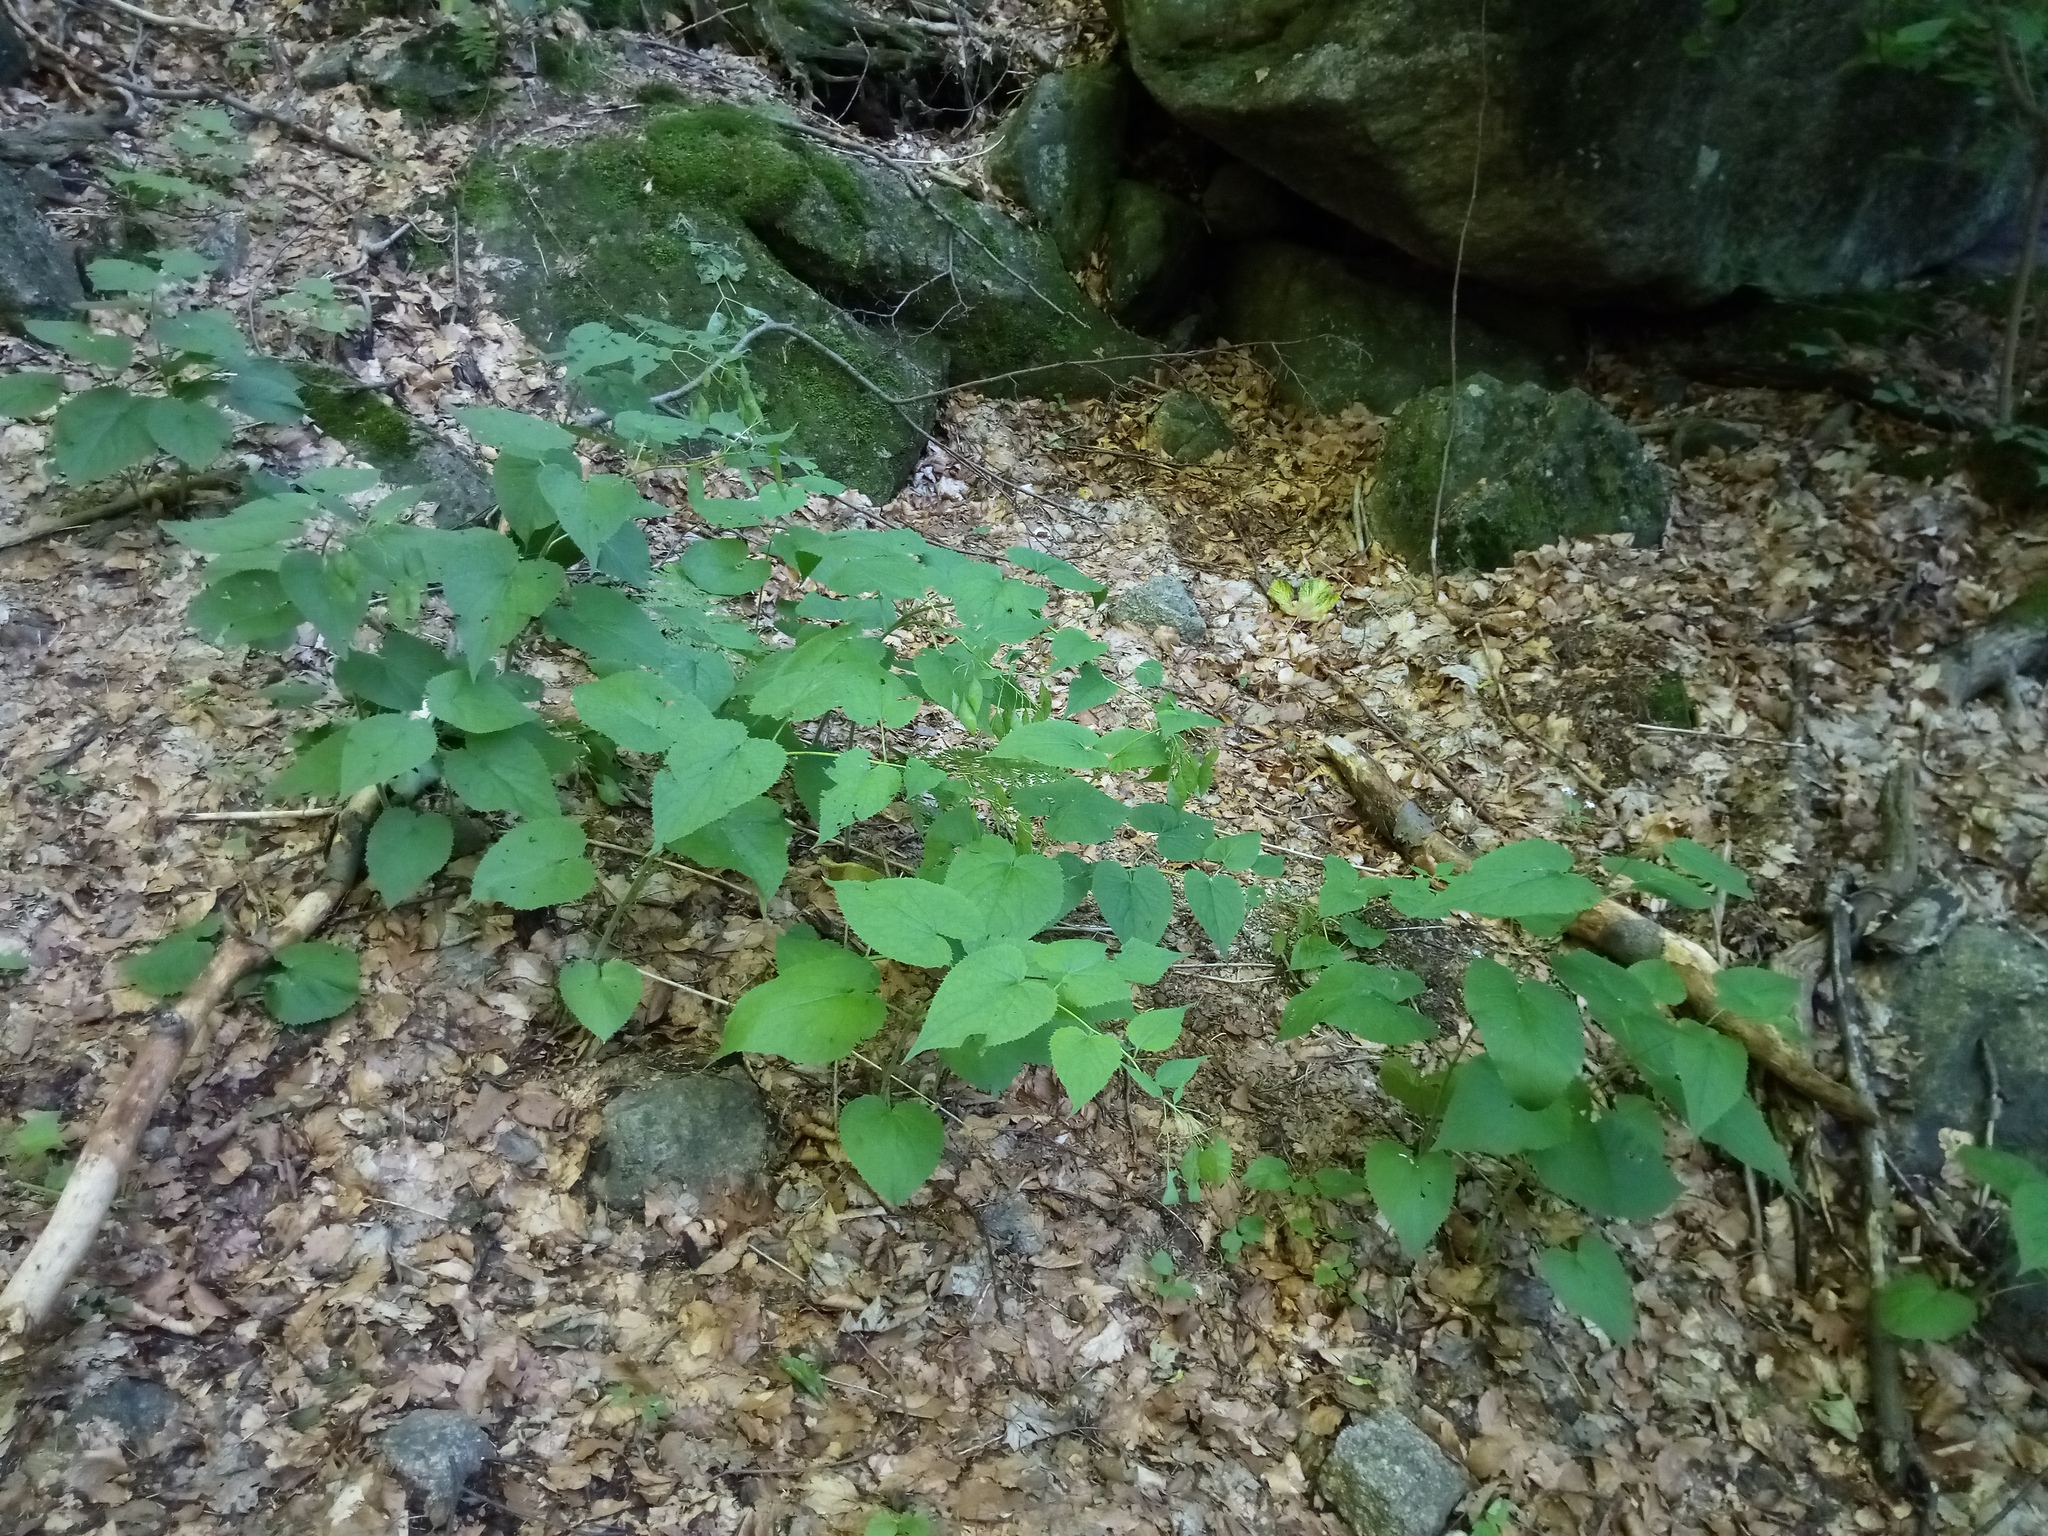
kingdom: Plantae
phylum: Tracheophyta
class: Magnoliopsida
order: Brassicales
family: Brassicaceae
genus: Lunaria
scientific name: Lunaria rediviva
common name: Perennial honesty
